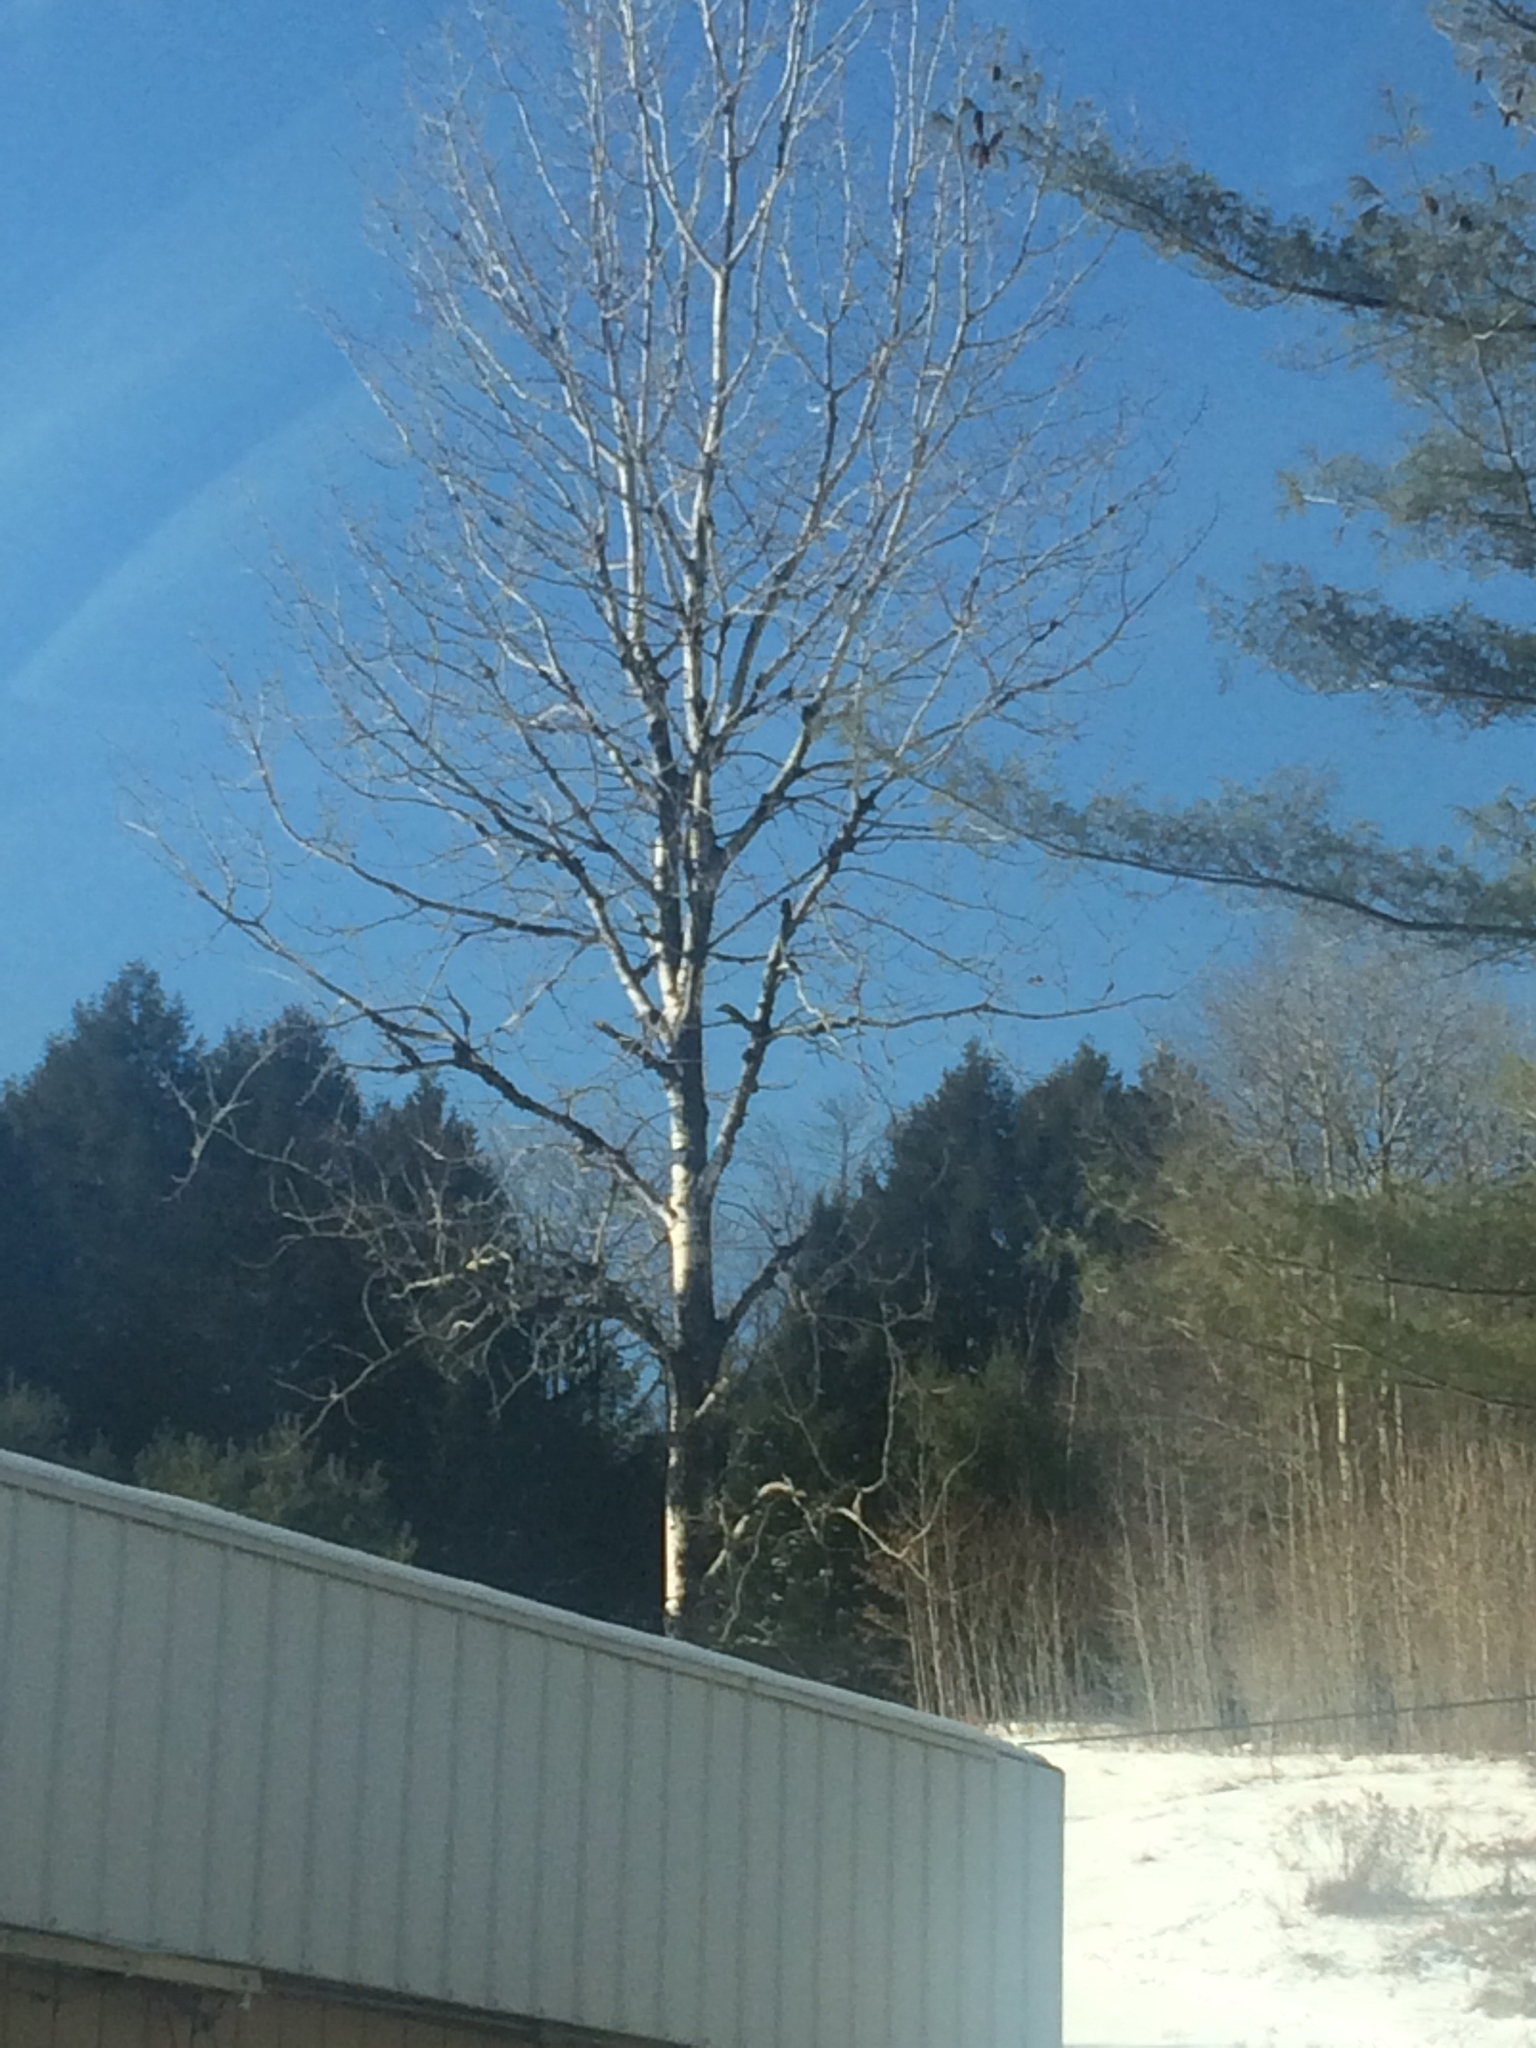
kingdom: Plantae
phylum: Tracheophyta
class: Magnoliopsida
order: Malpighiales
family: Salicaceae
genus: Populus
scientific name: Populus tremuloides
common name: Quaking aspen
